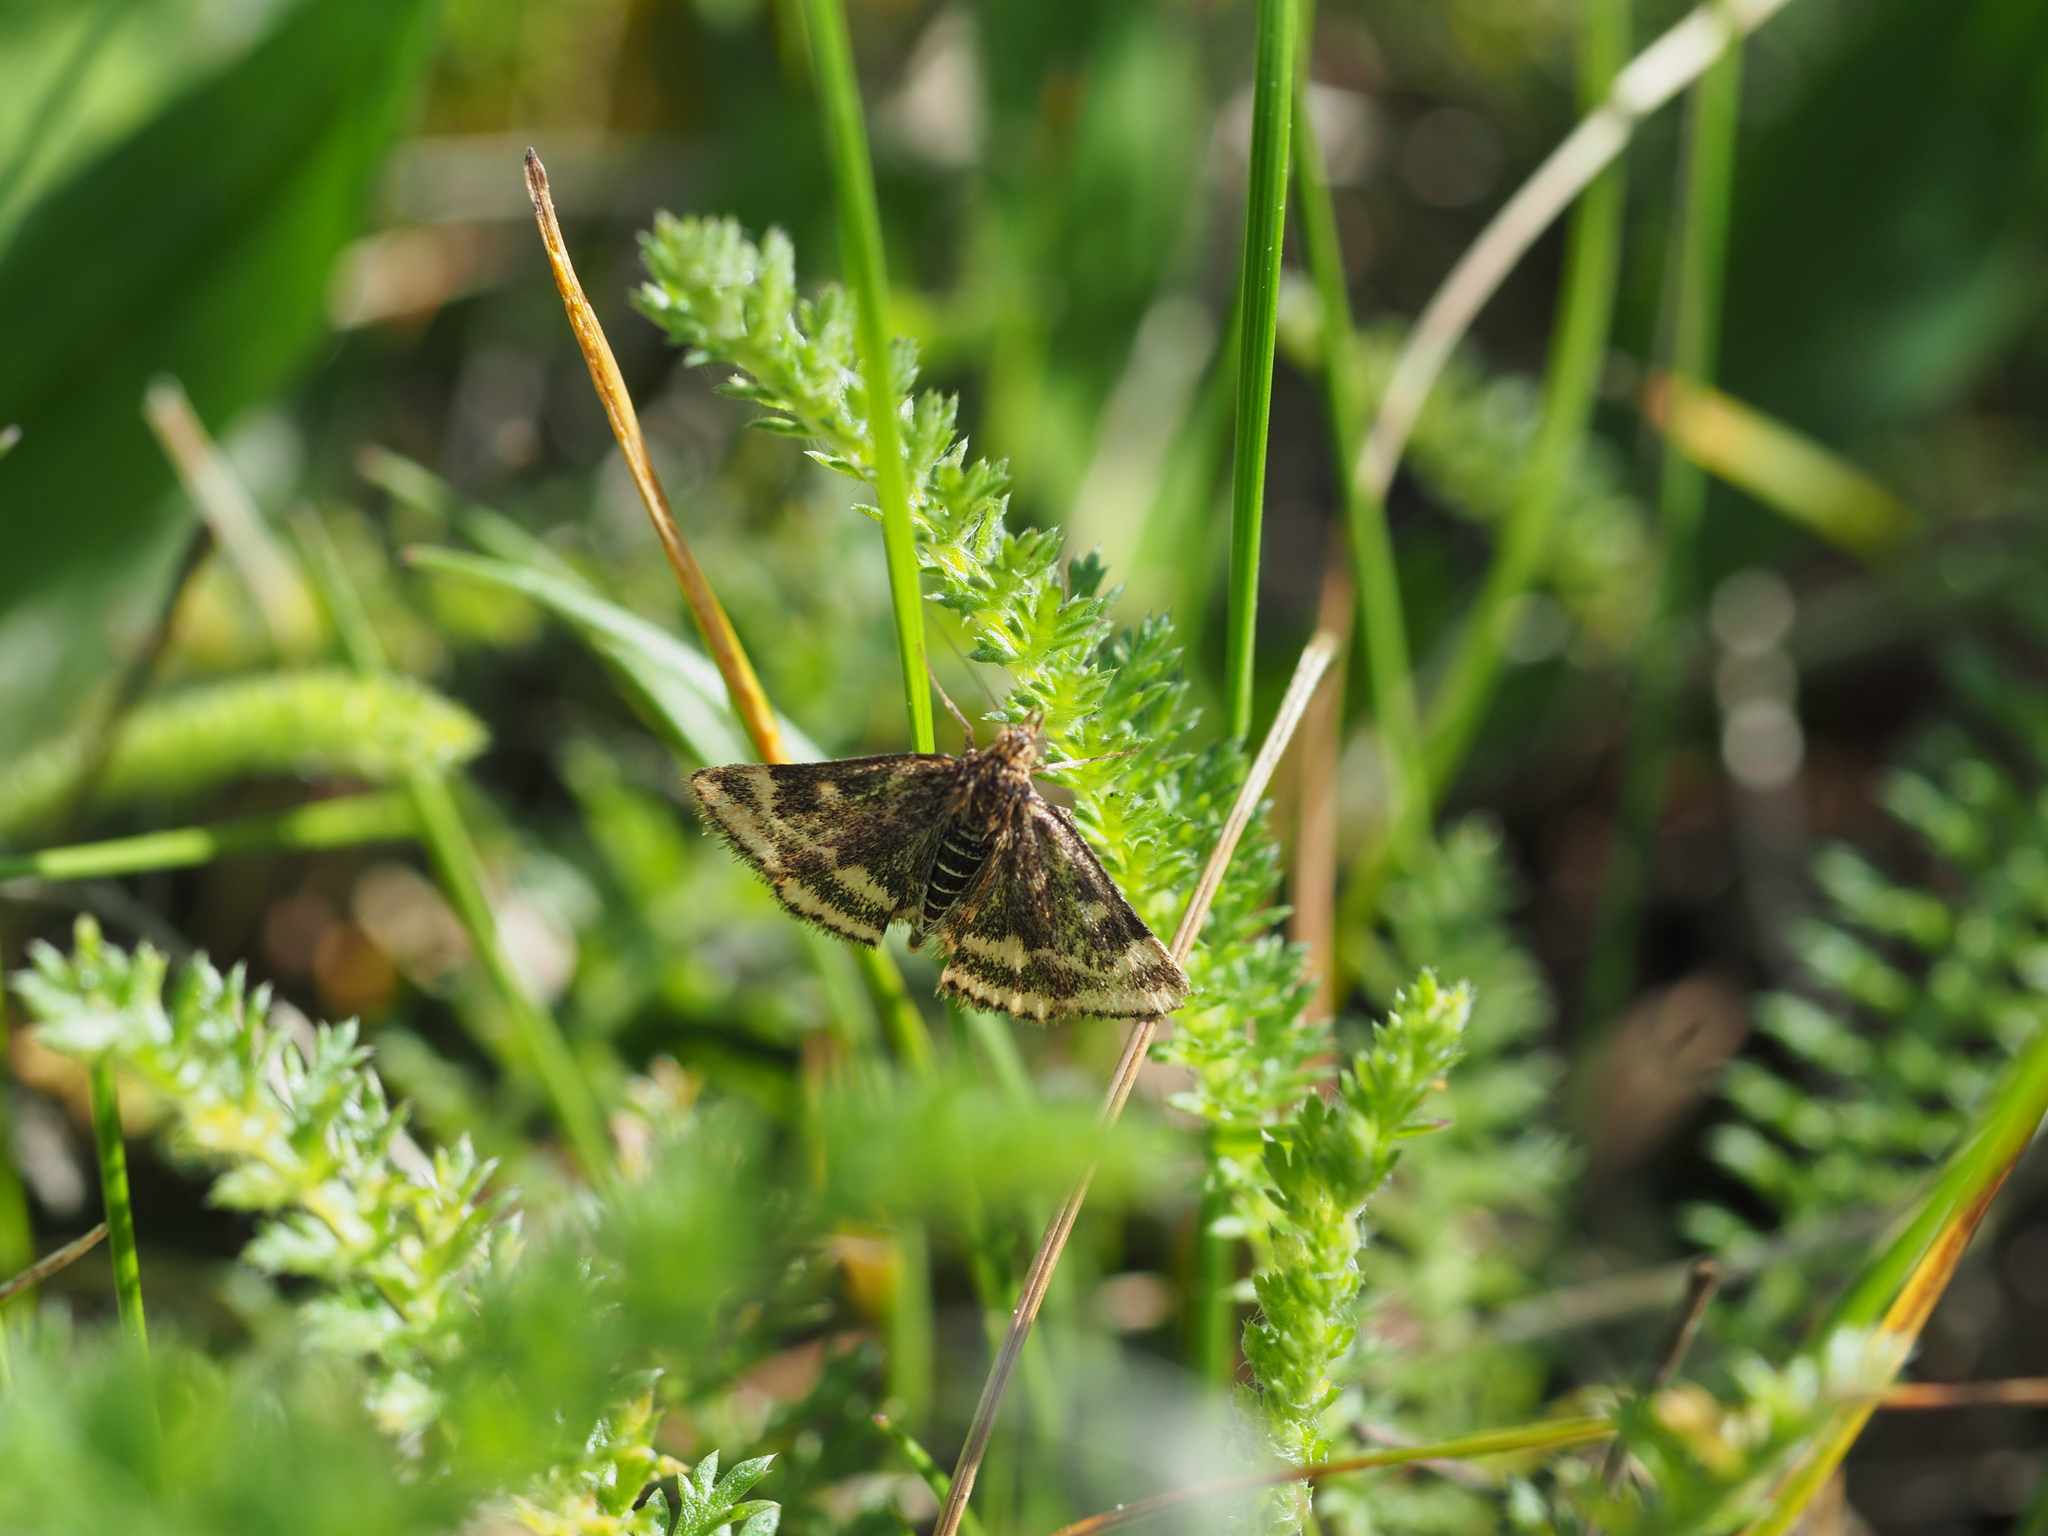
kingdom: Animalia
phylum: Arthropoda
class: Insecta
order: Lepidoptera
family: Crambidae
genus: Pyrausta
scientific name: Pyrausta despicata
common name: Straw-barred pearl
